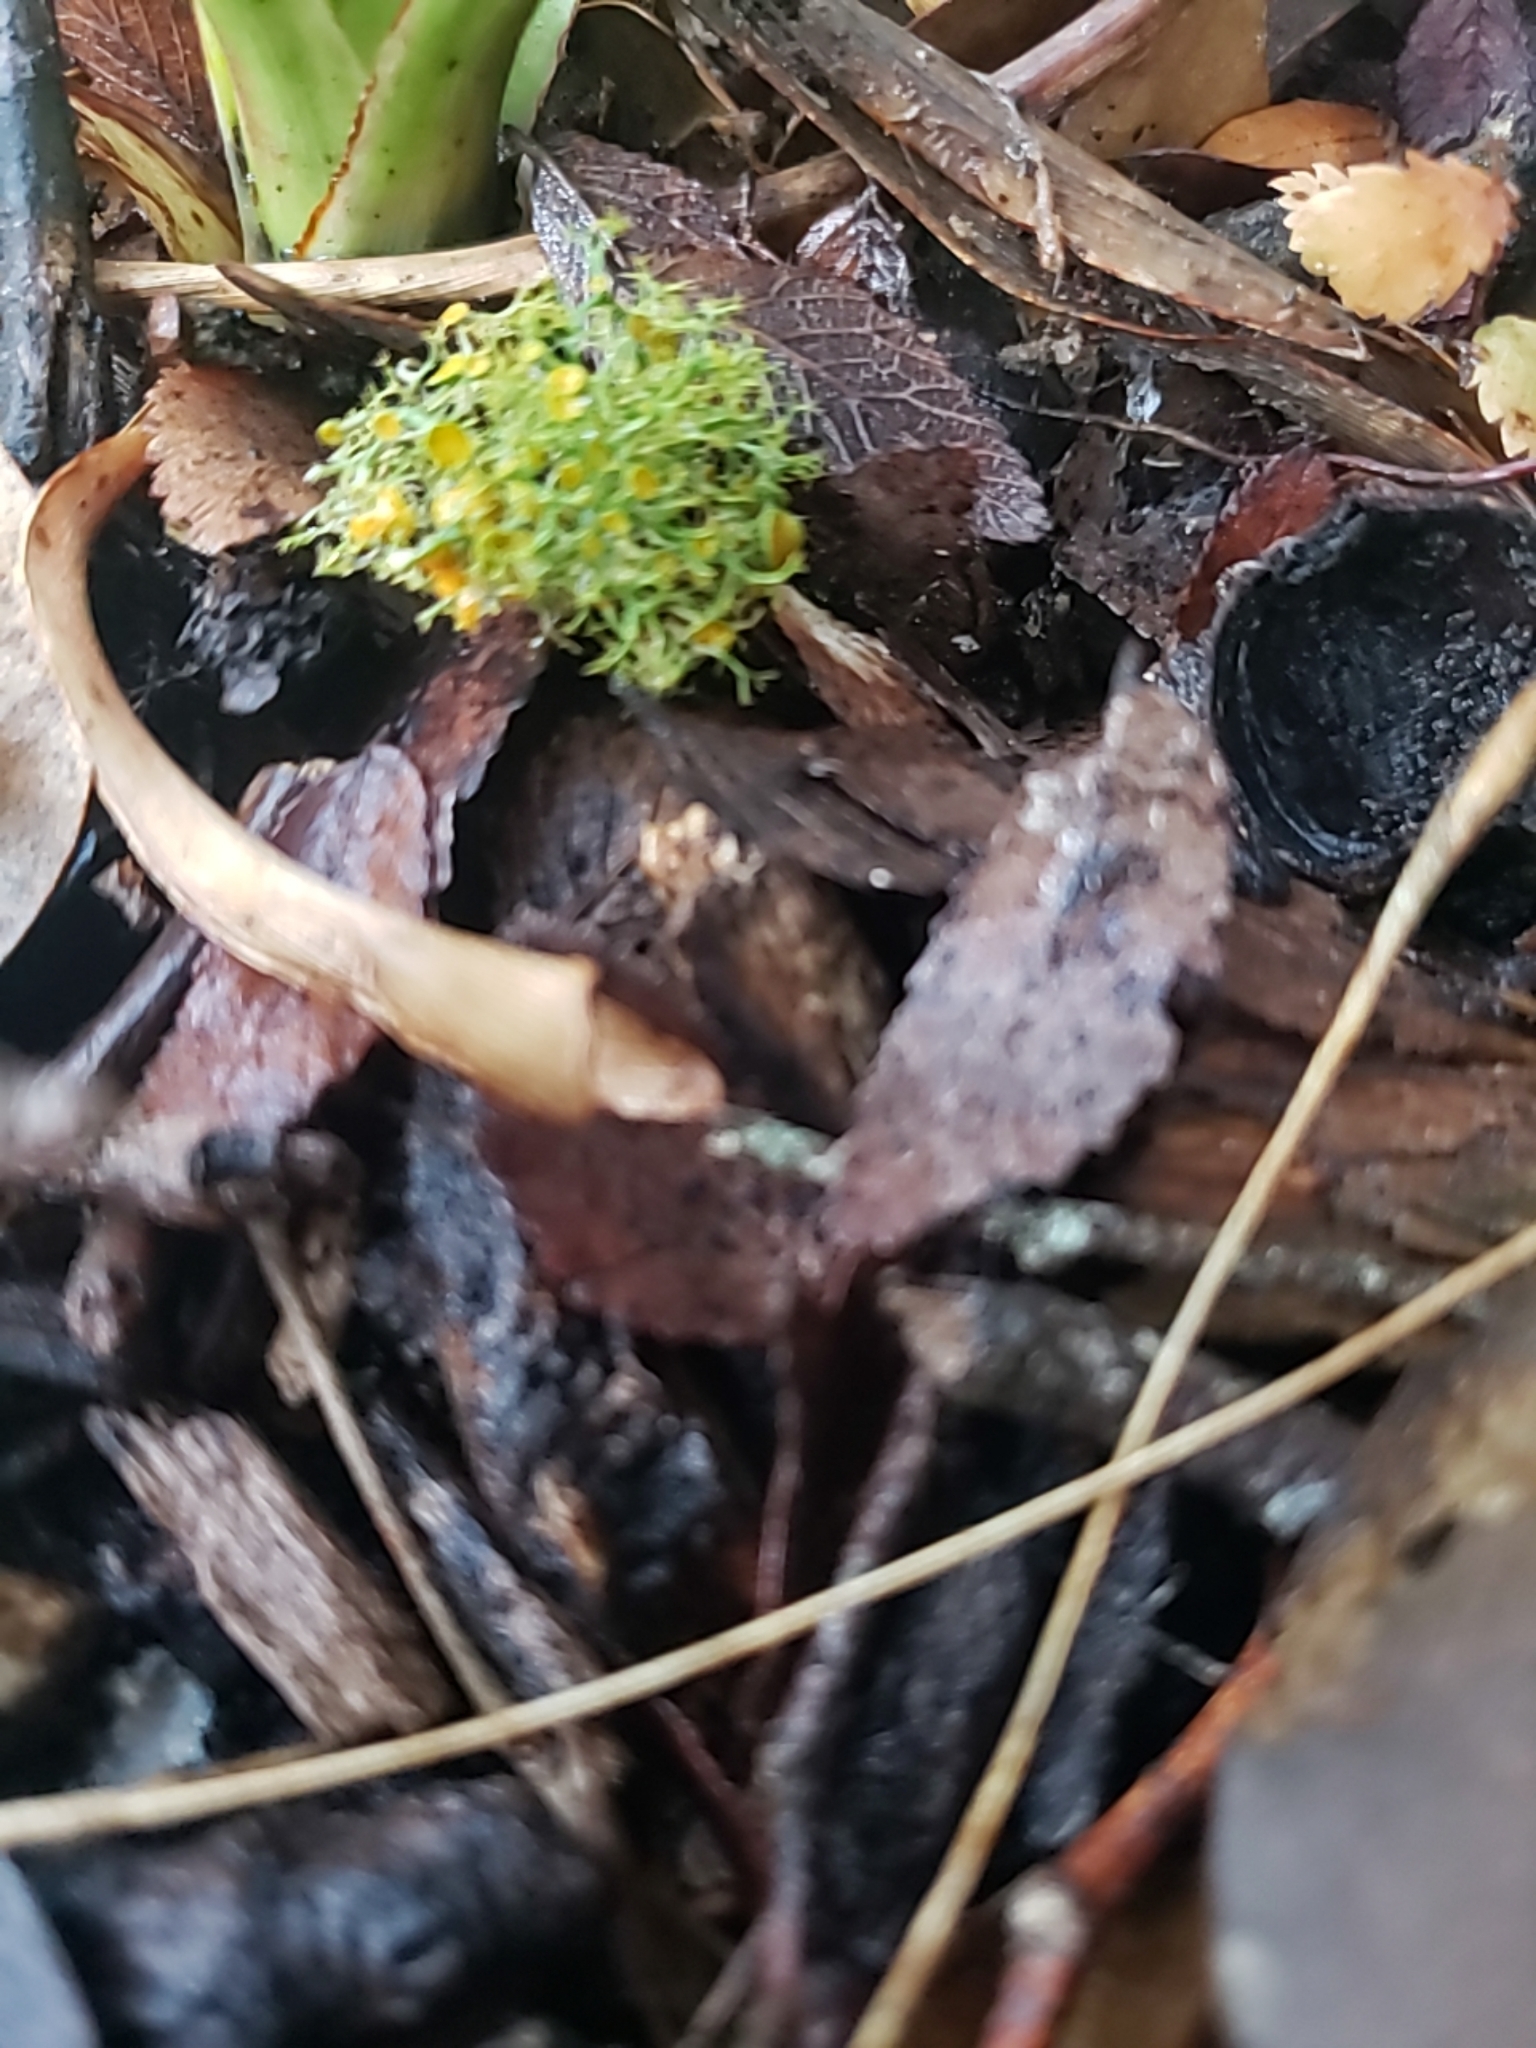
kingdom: Fungi
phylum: Ascomycota
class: Lecanoromycetes
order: Teloschistales
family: Teloschistaceae
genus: Teloschistes
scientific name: Teloschistes exilis
